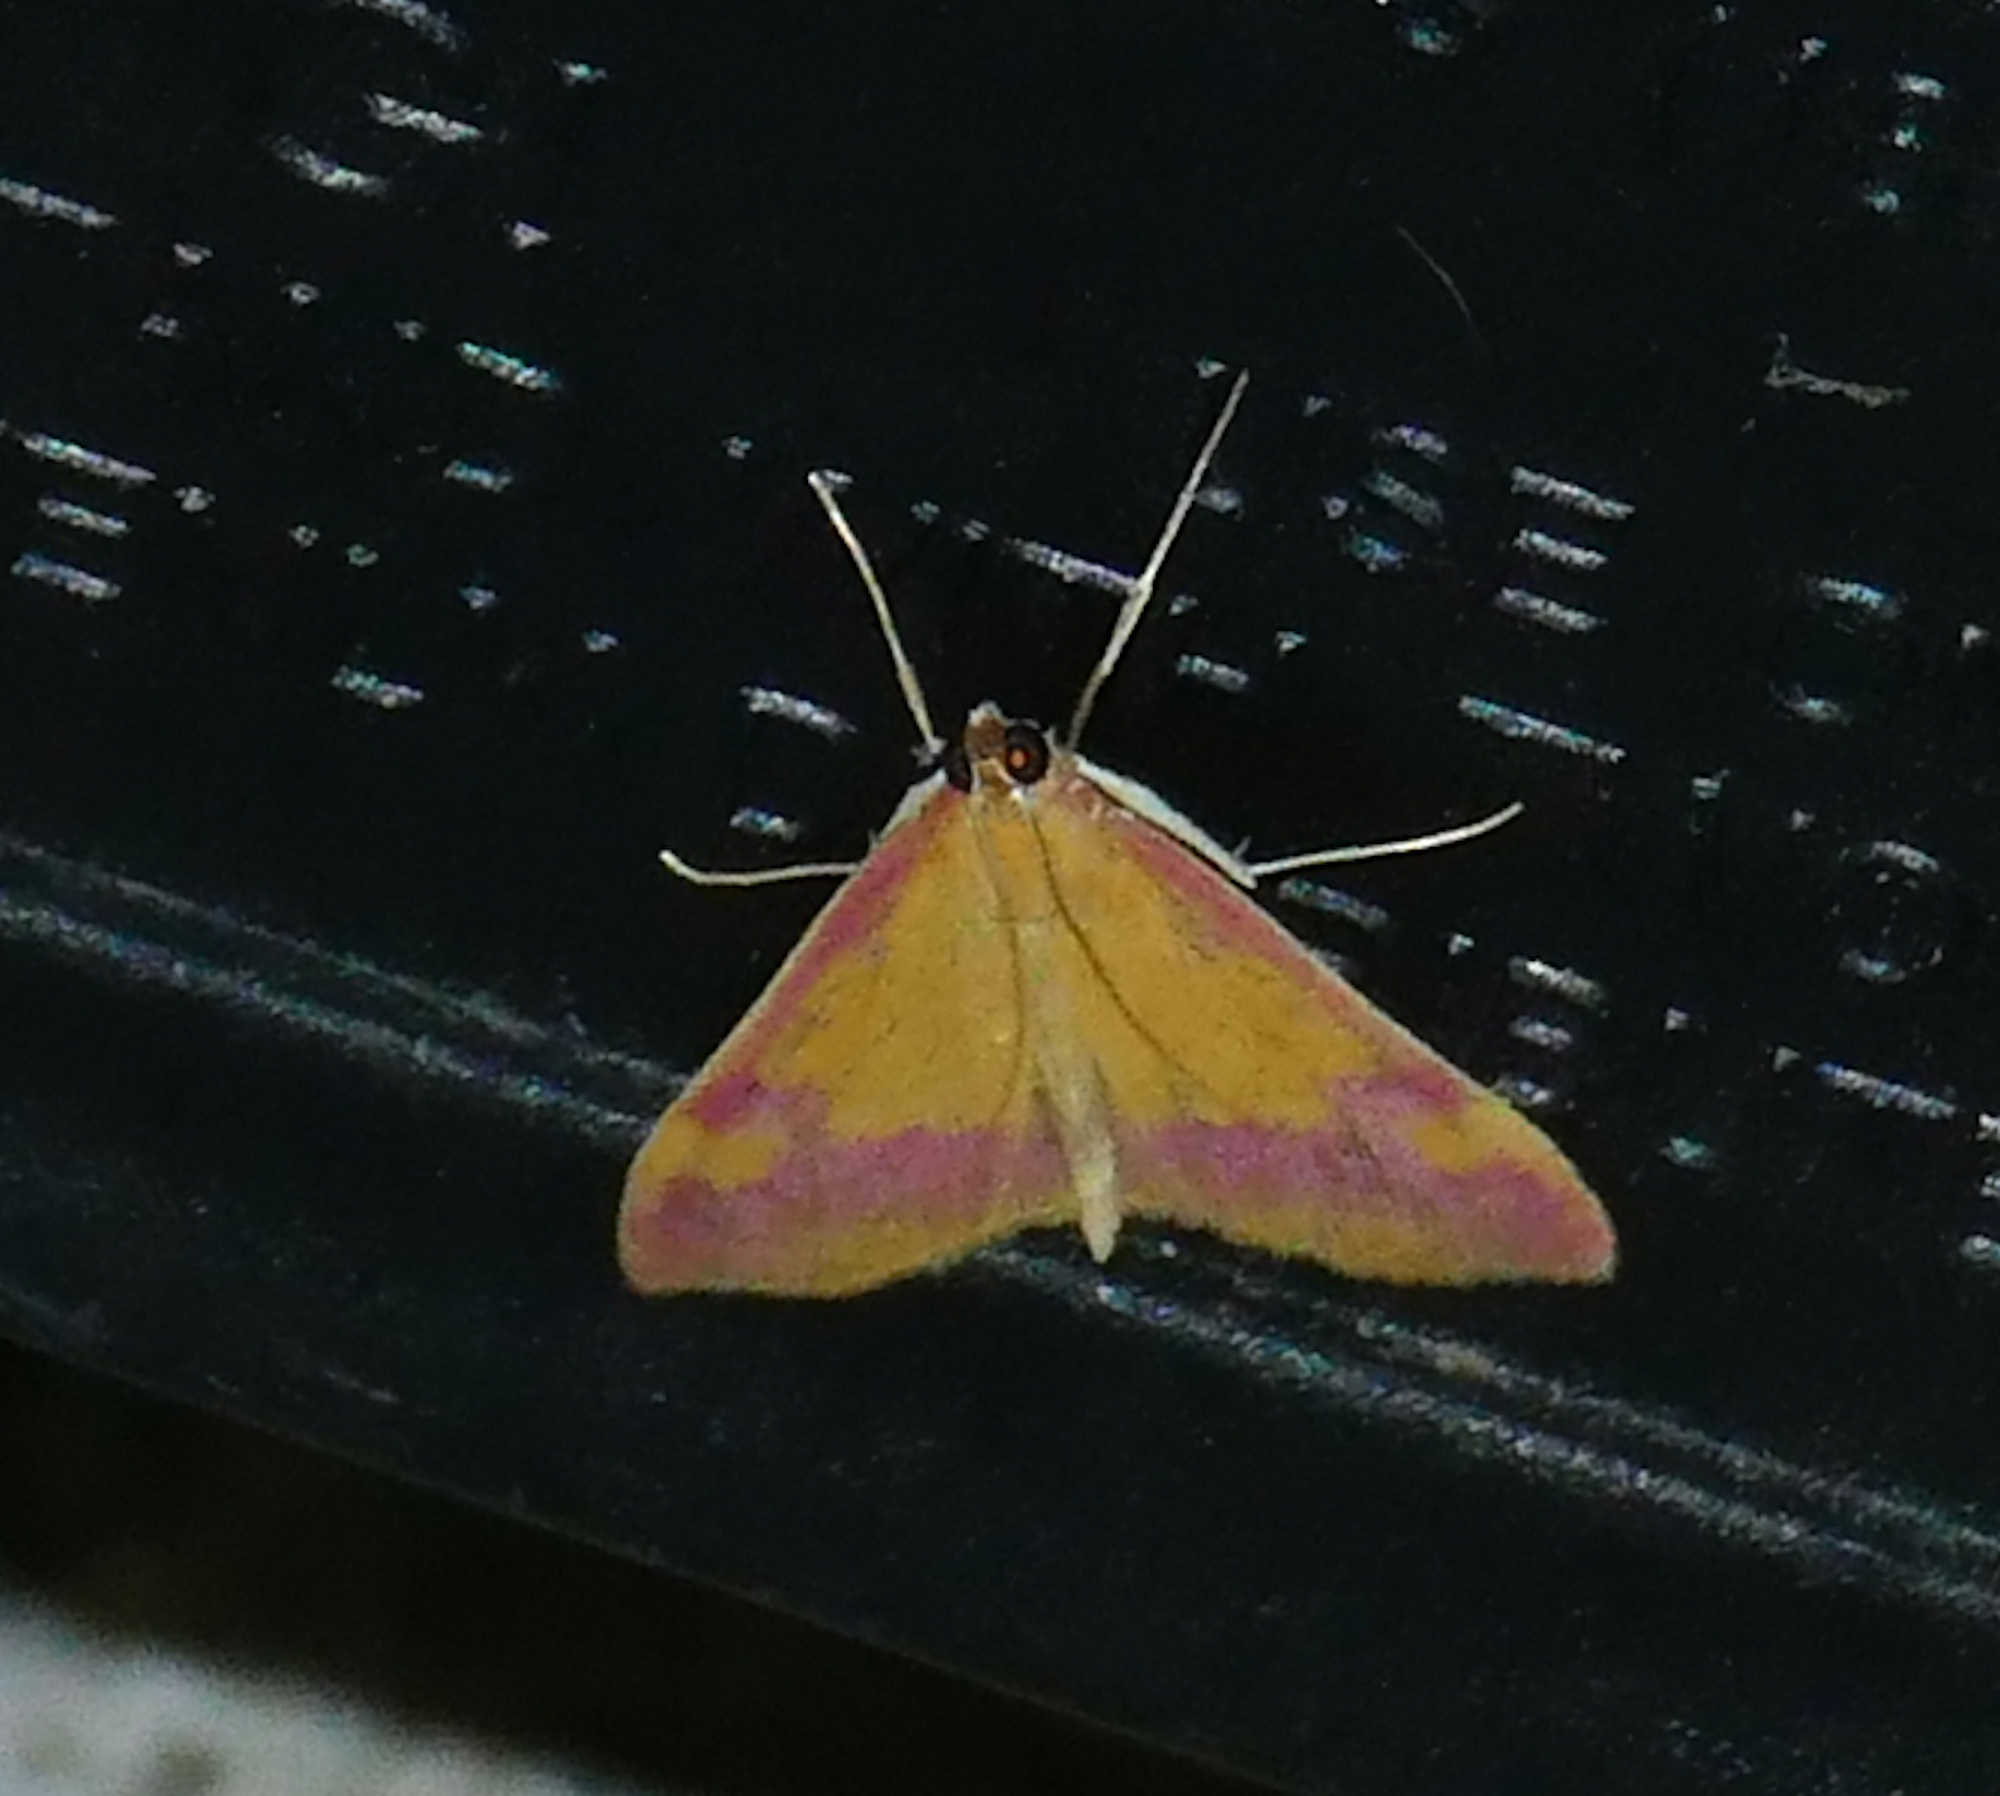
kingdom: Animalia
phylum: Arthropoda
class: Insecta
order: Lepidoptera
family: Crambidae
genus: Pyrausta
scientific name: Pyrausta scurralis
